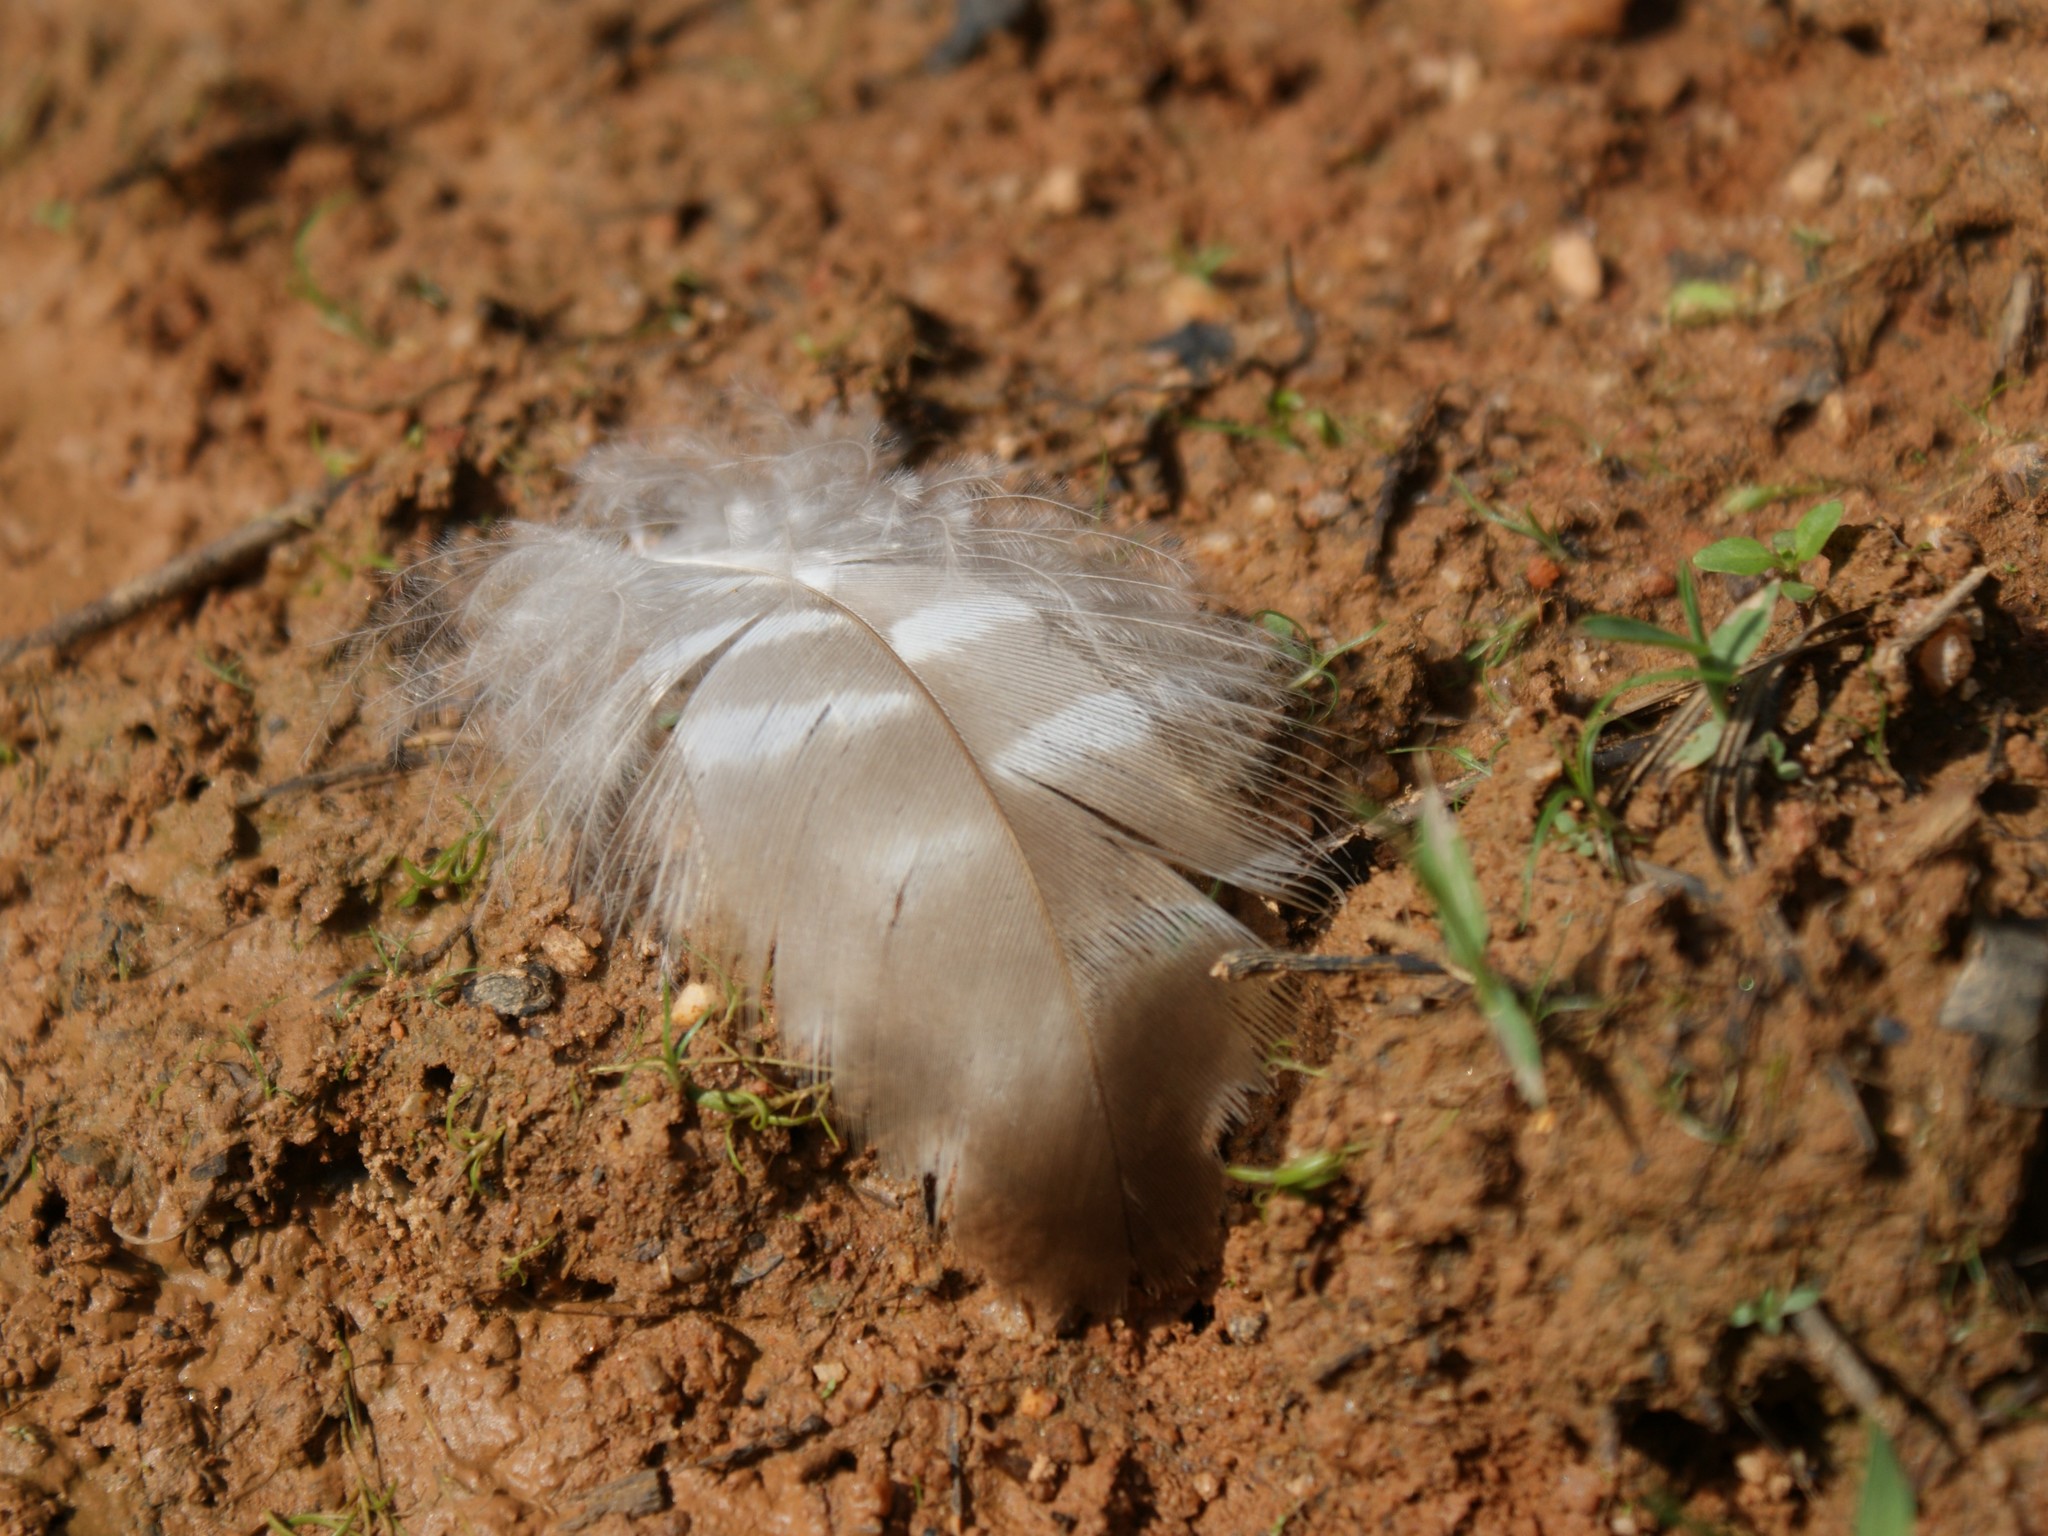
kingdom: Animalia
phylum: Chordata
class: Aves
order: Accipitriformes
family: Accipitridae
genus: Buteo
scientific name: Buteo lineatus
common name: Red-shouldered hawk
